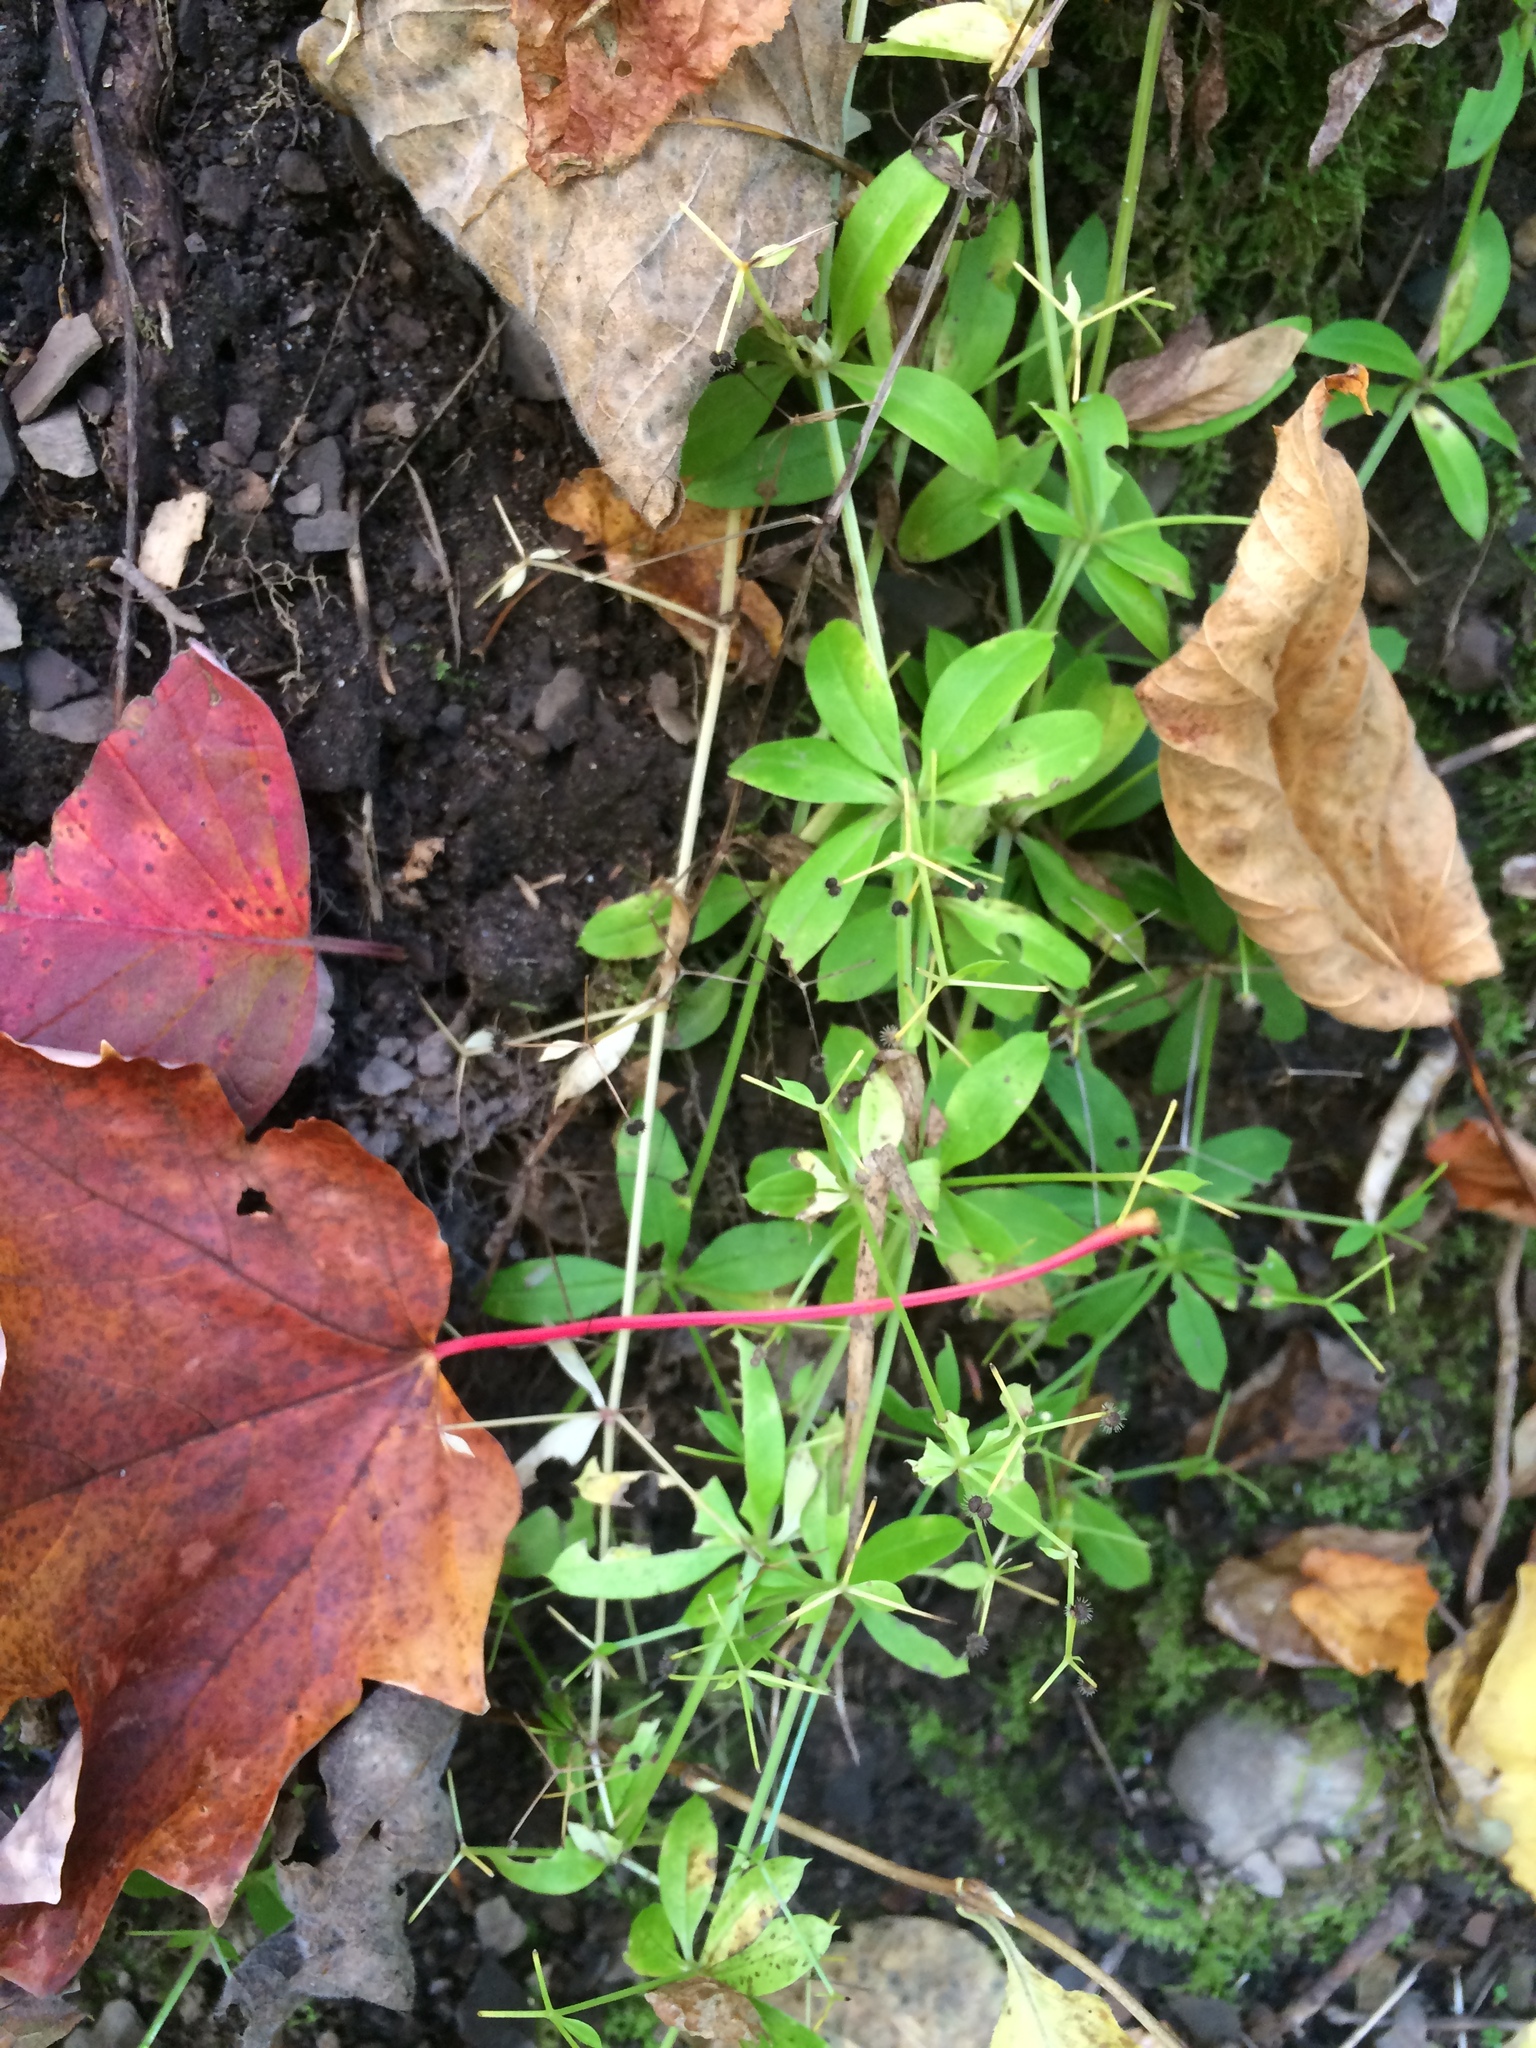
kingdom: Plantae
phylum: Tracheophyta
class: Magnoliopsida
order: Gentianales
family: Rubiaceae
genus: Galium
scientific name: Galium triflorum
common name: Fragrant bedstraw
